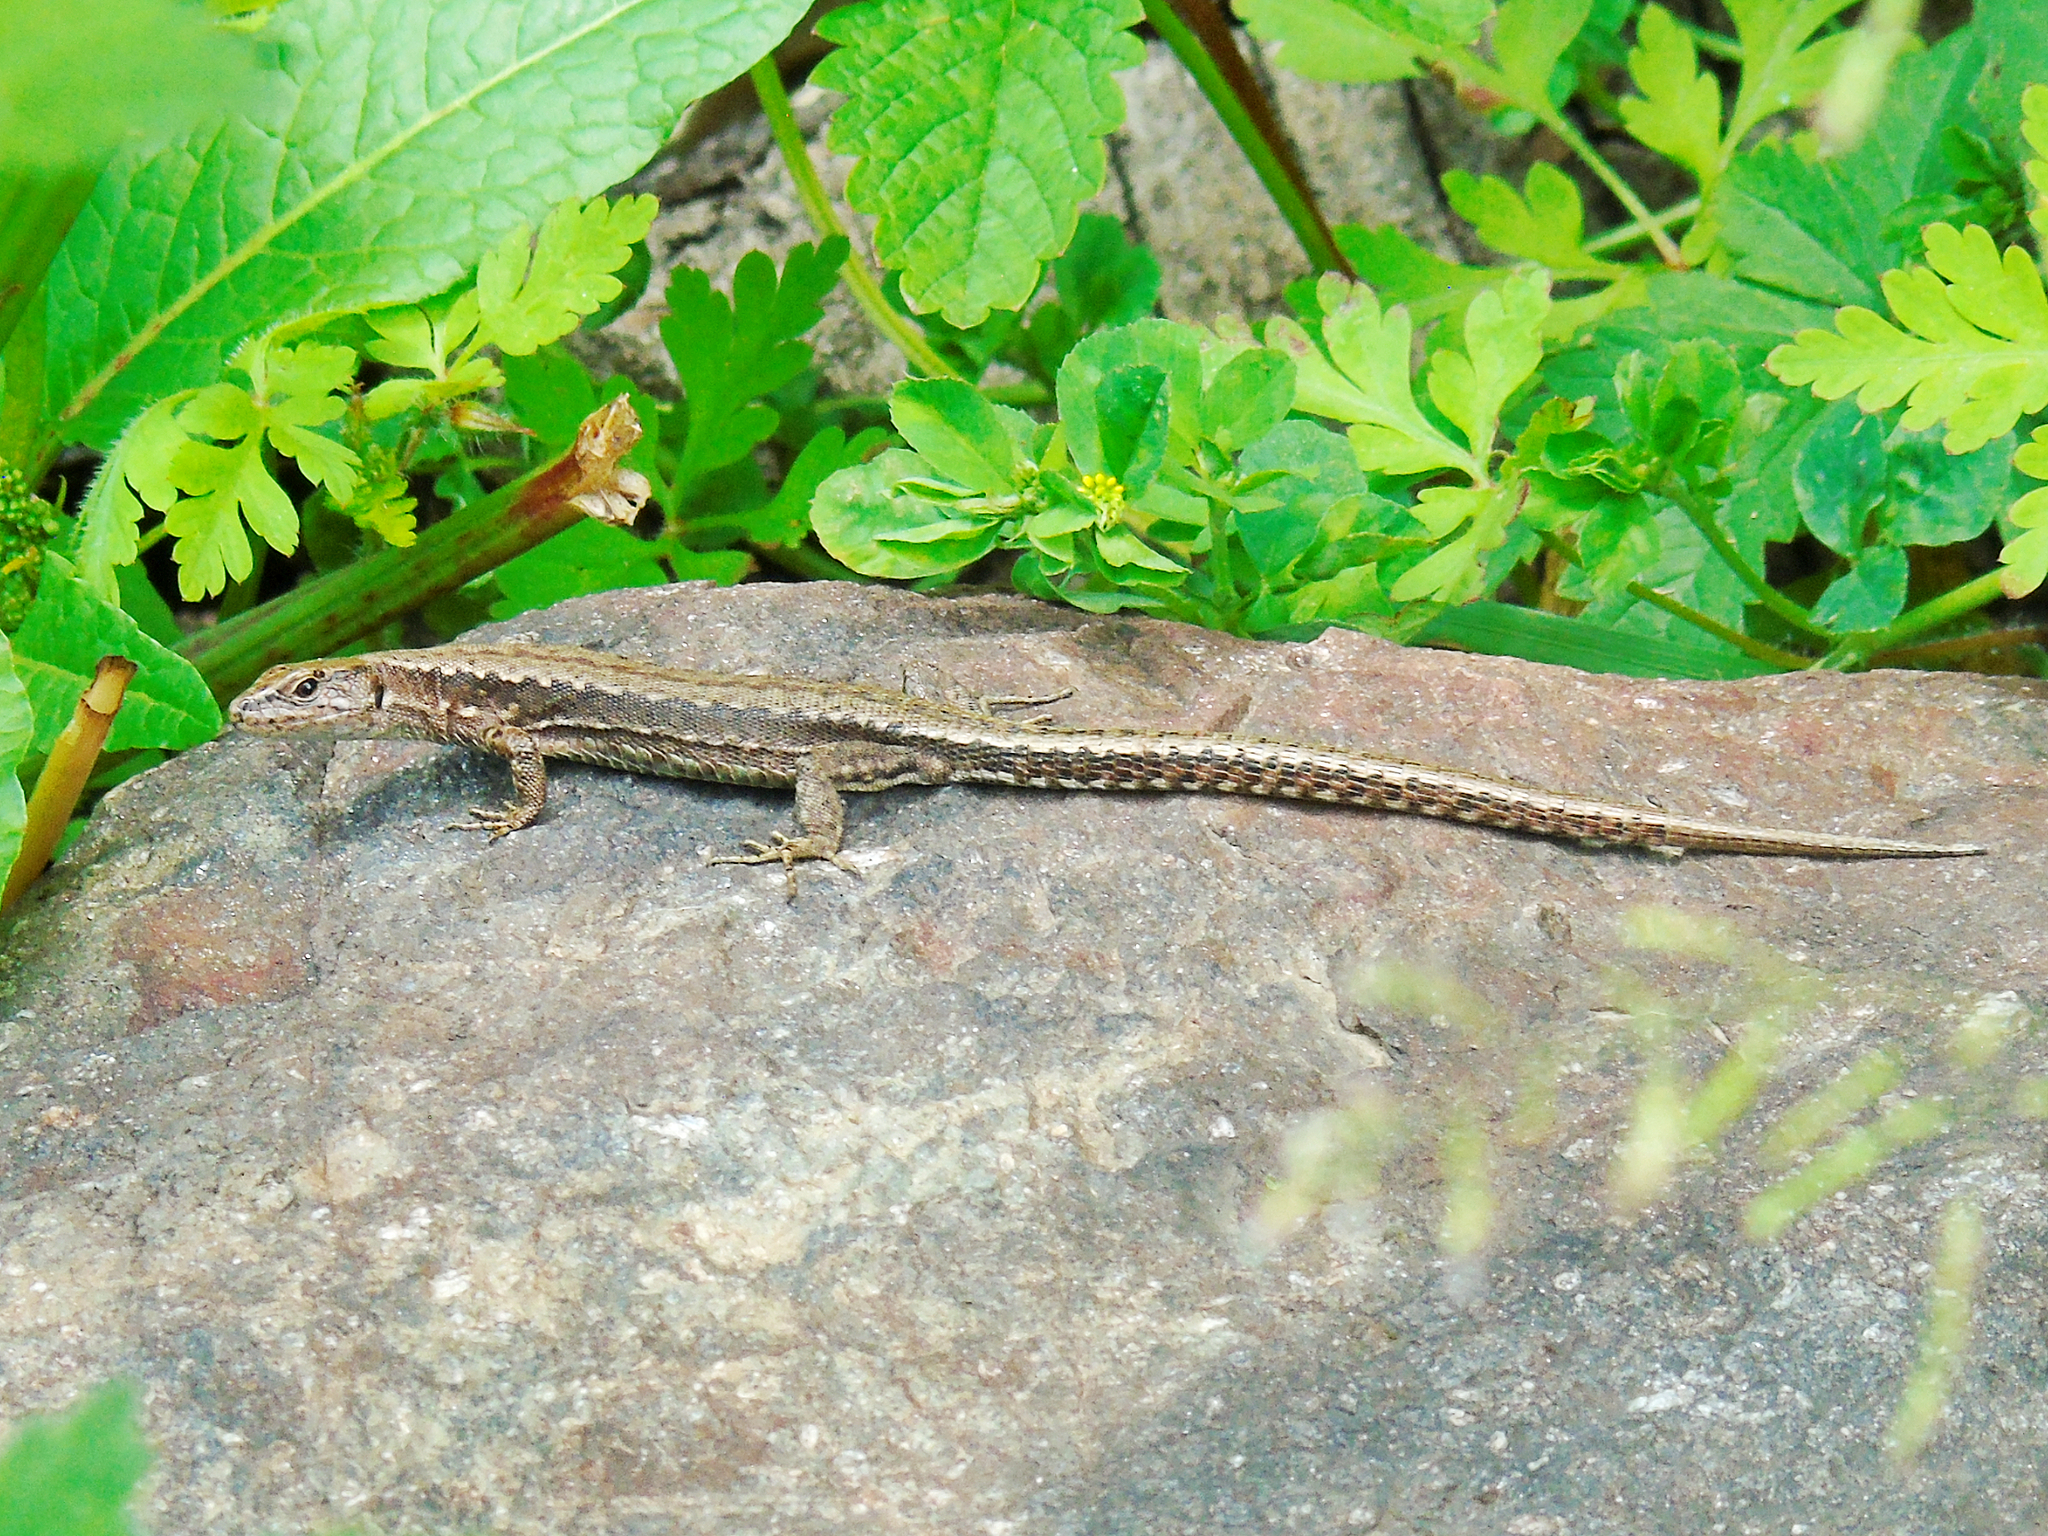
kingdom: Animalia
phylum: Chordata
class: Squamata
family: Lacertidae
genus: Darevskia
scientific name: Darevskia derjugini
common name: Derjugin's lizard
